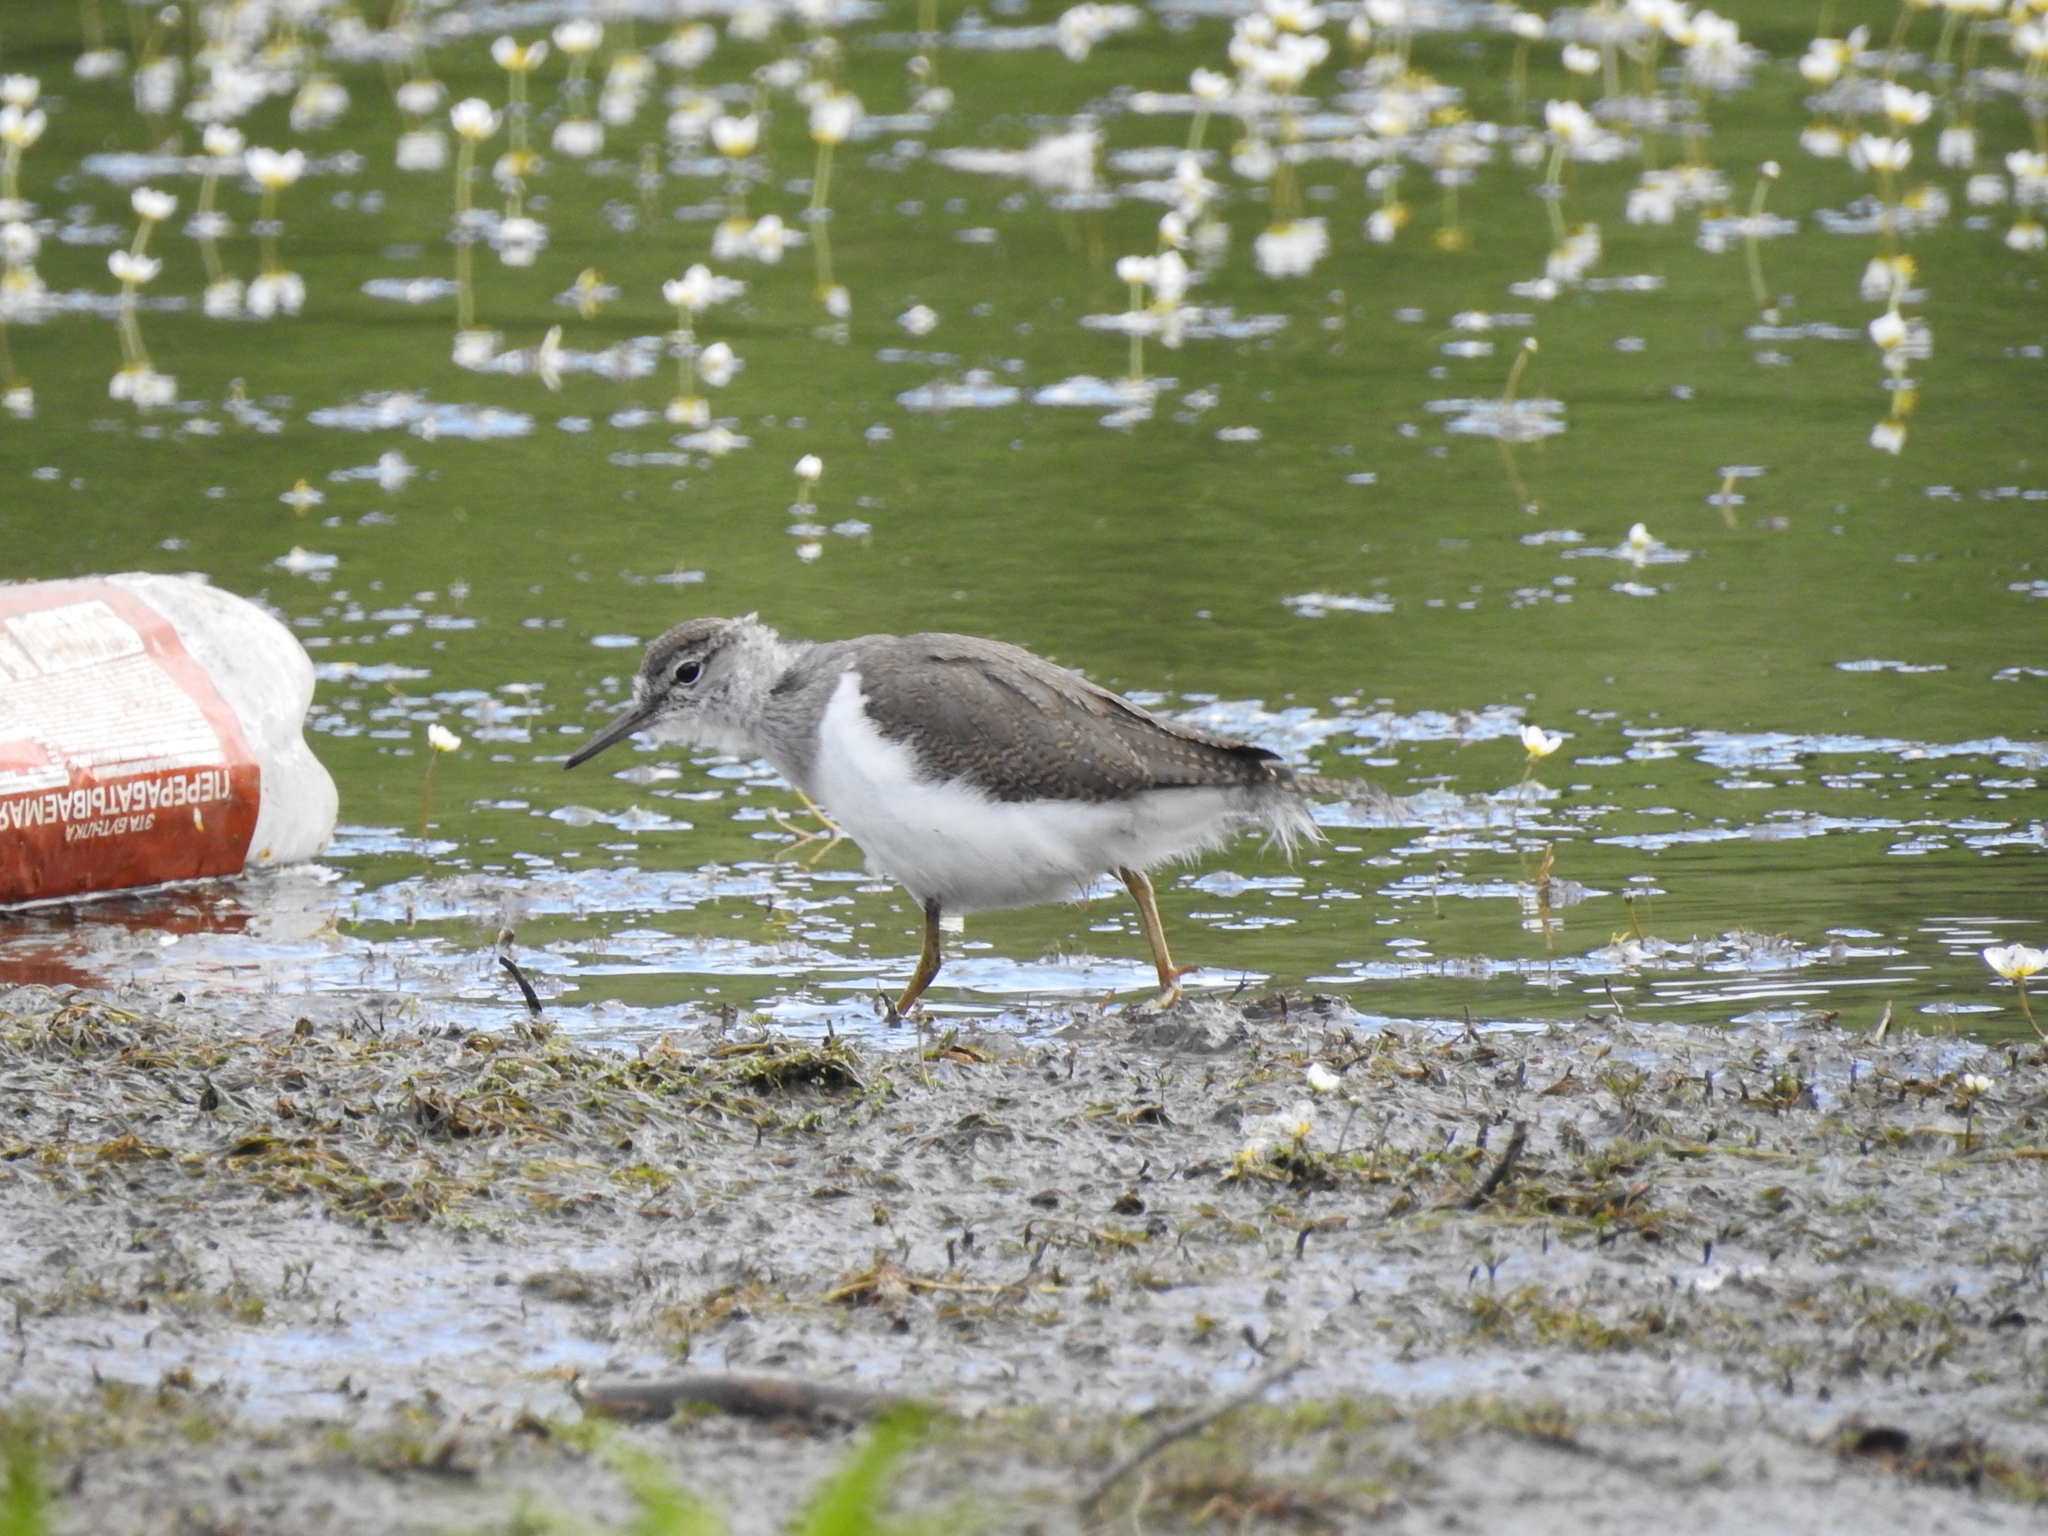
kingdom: Animalia
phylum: Chordata
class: Aves
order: Charadriiformes
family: Scolopacidae
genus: Actitis
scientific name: Actitis hypoleucos
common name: Common sandpiper
